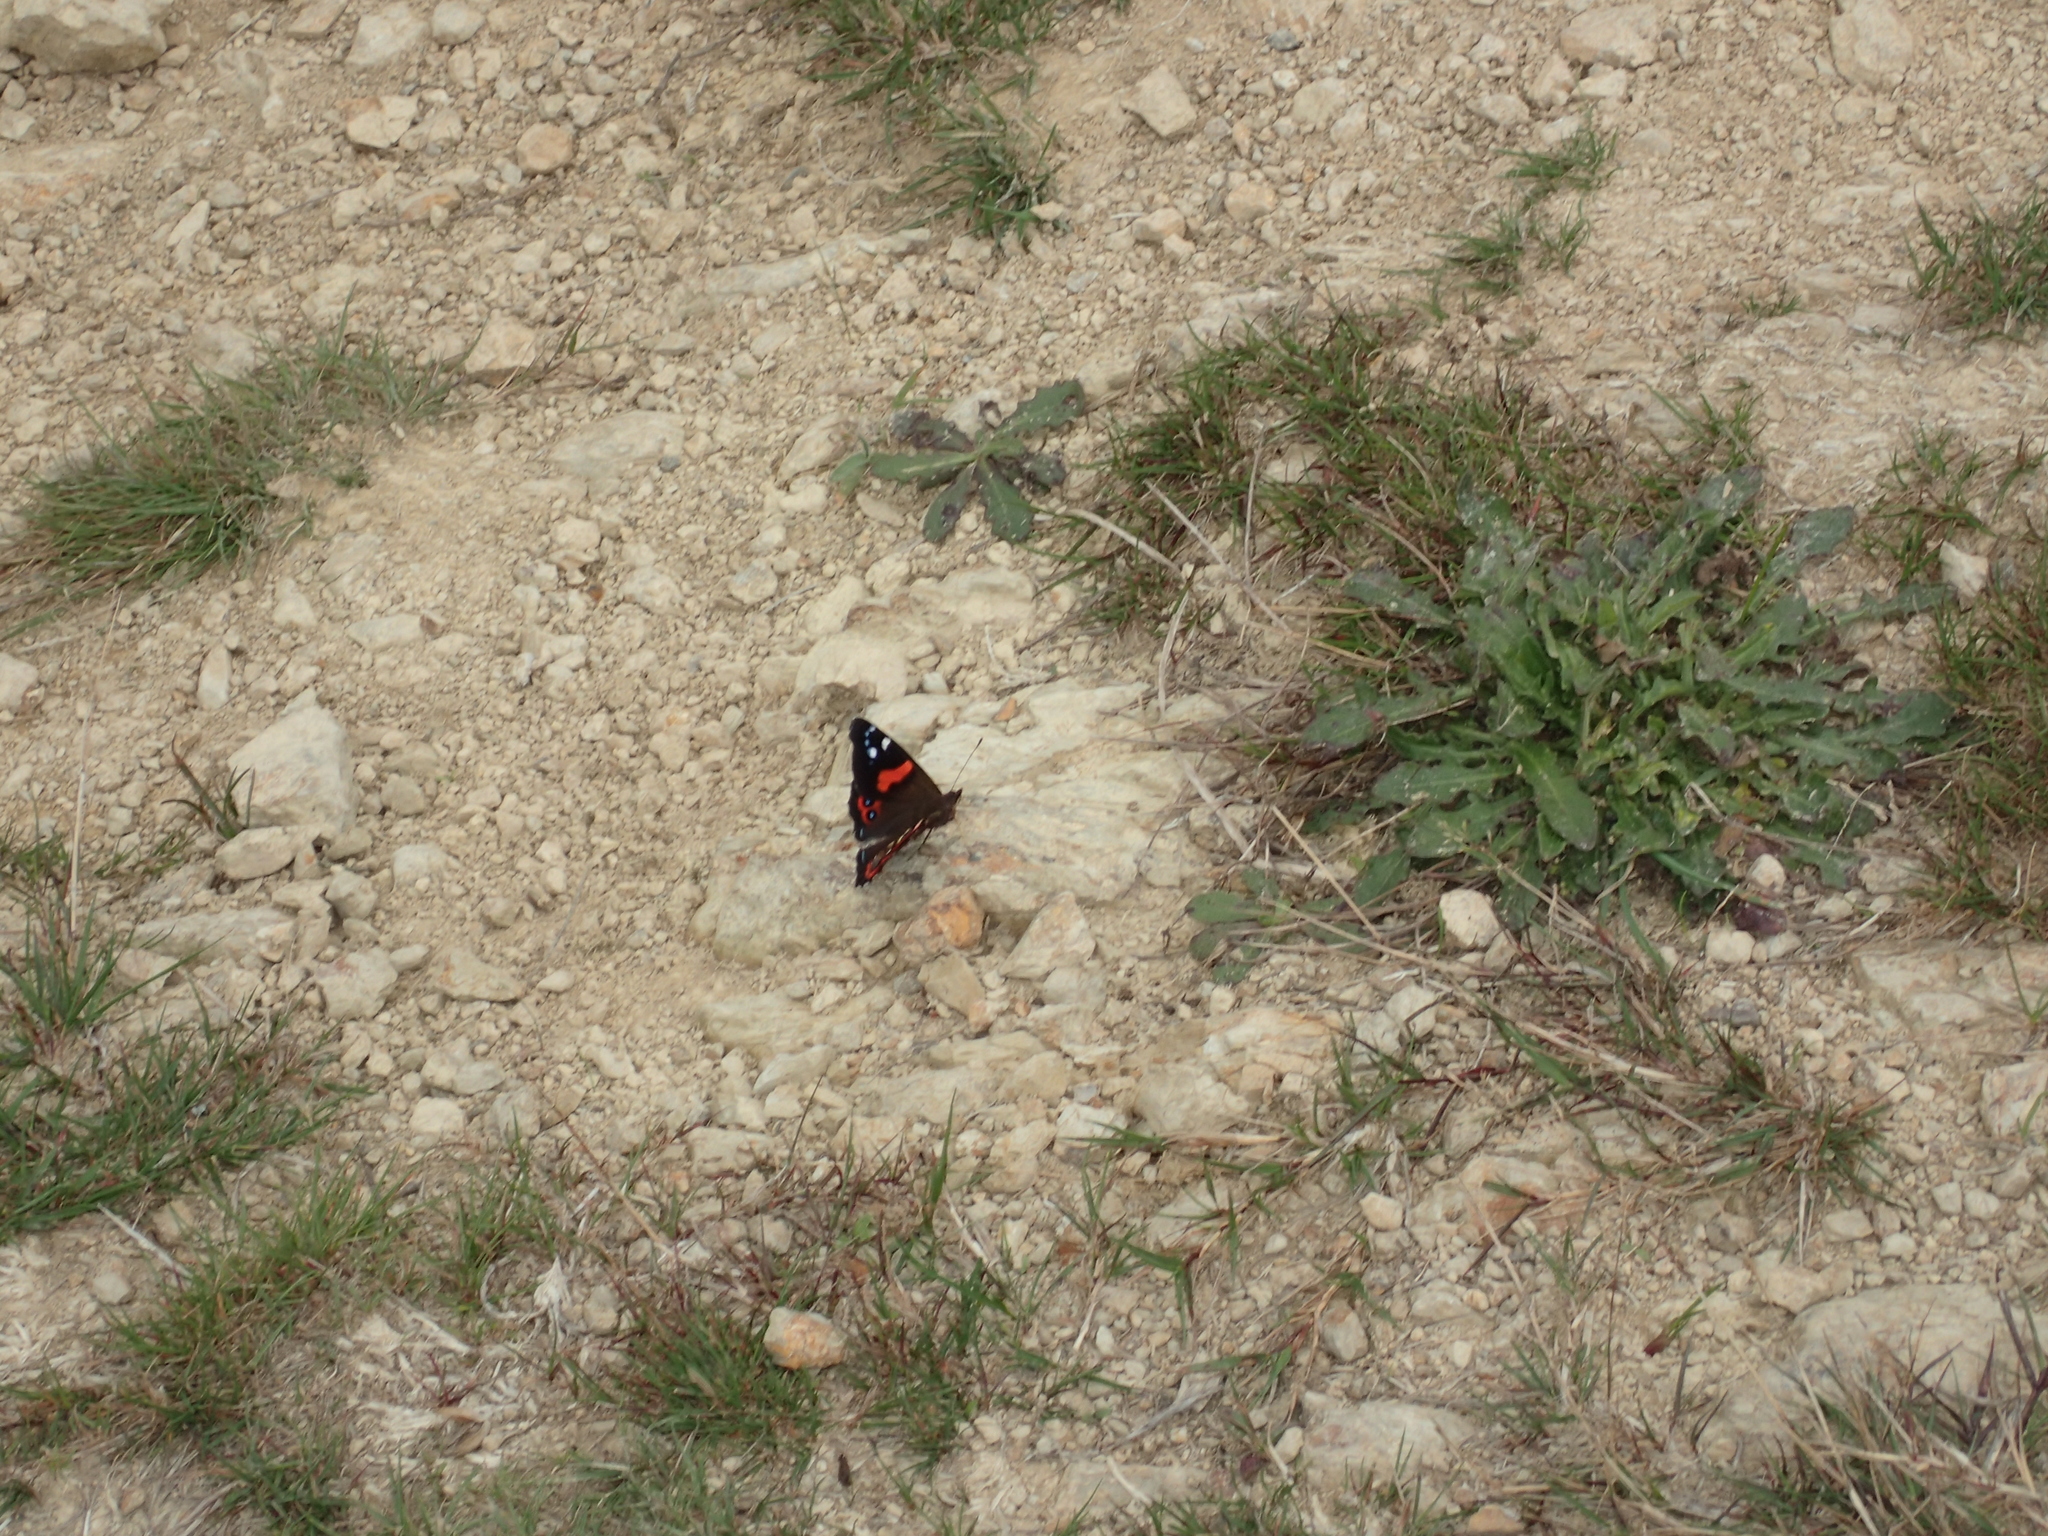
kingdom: Animalia
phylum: Arthropoda
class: Insecta
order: Lepidoptera
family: Nymphalidae
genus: Vanessa
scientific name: Vanessa gonerilla
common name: New zealand red admiral
